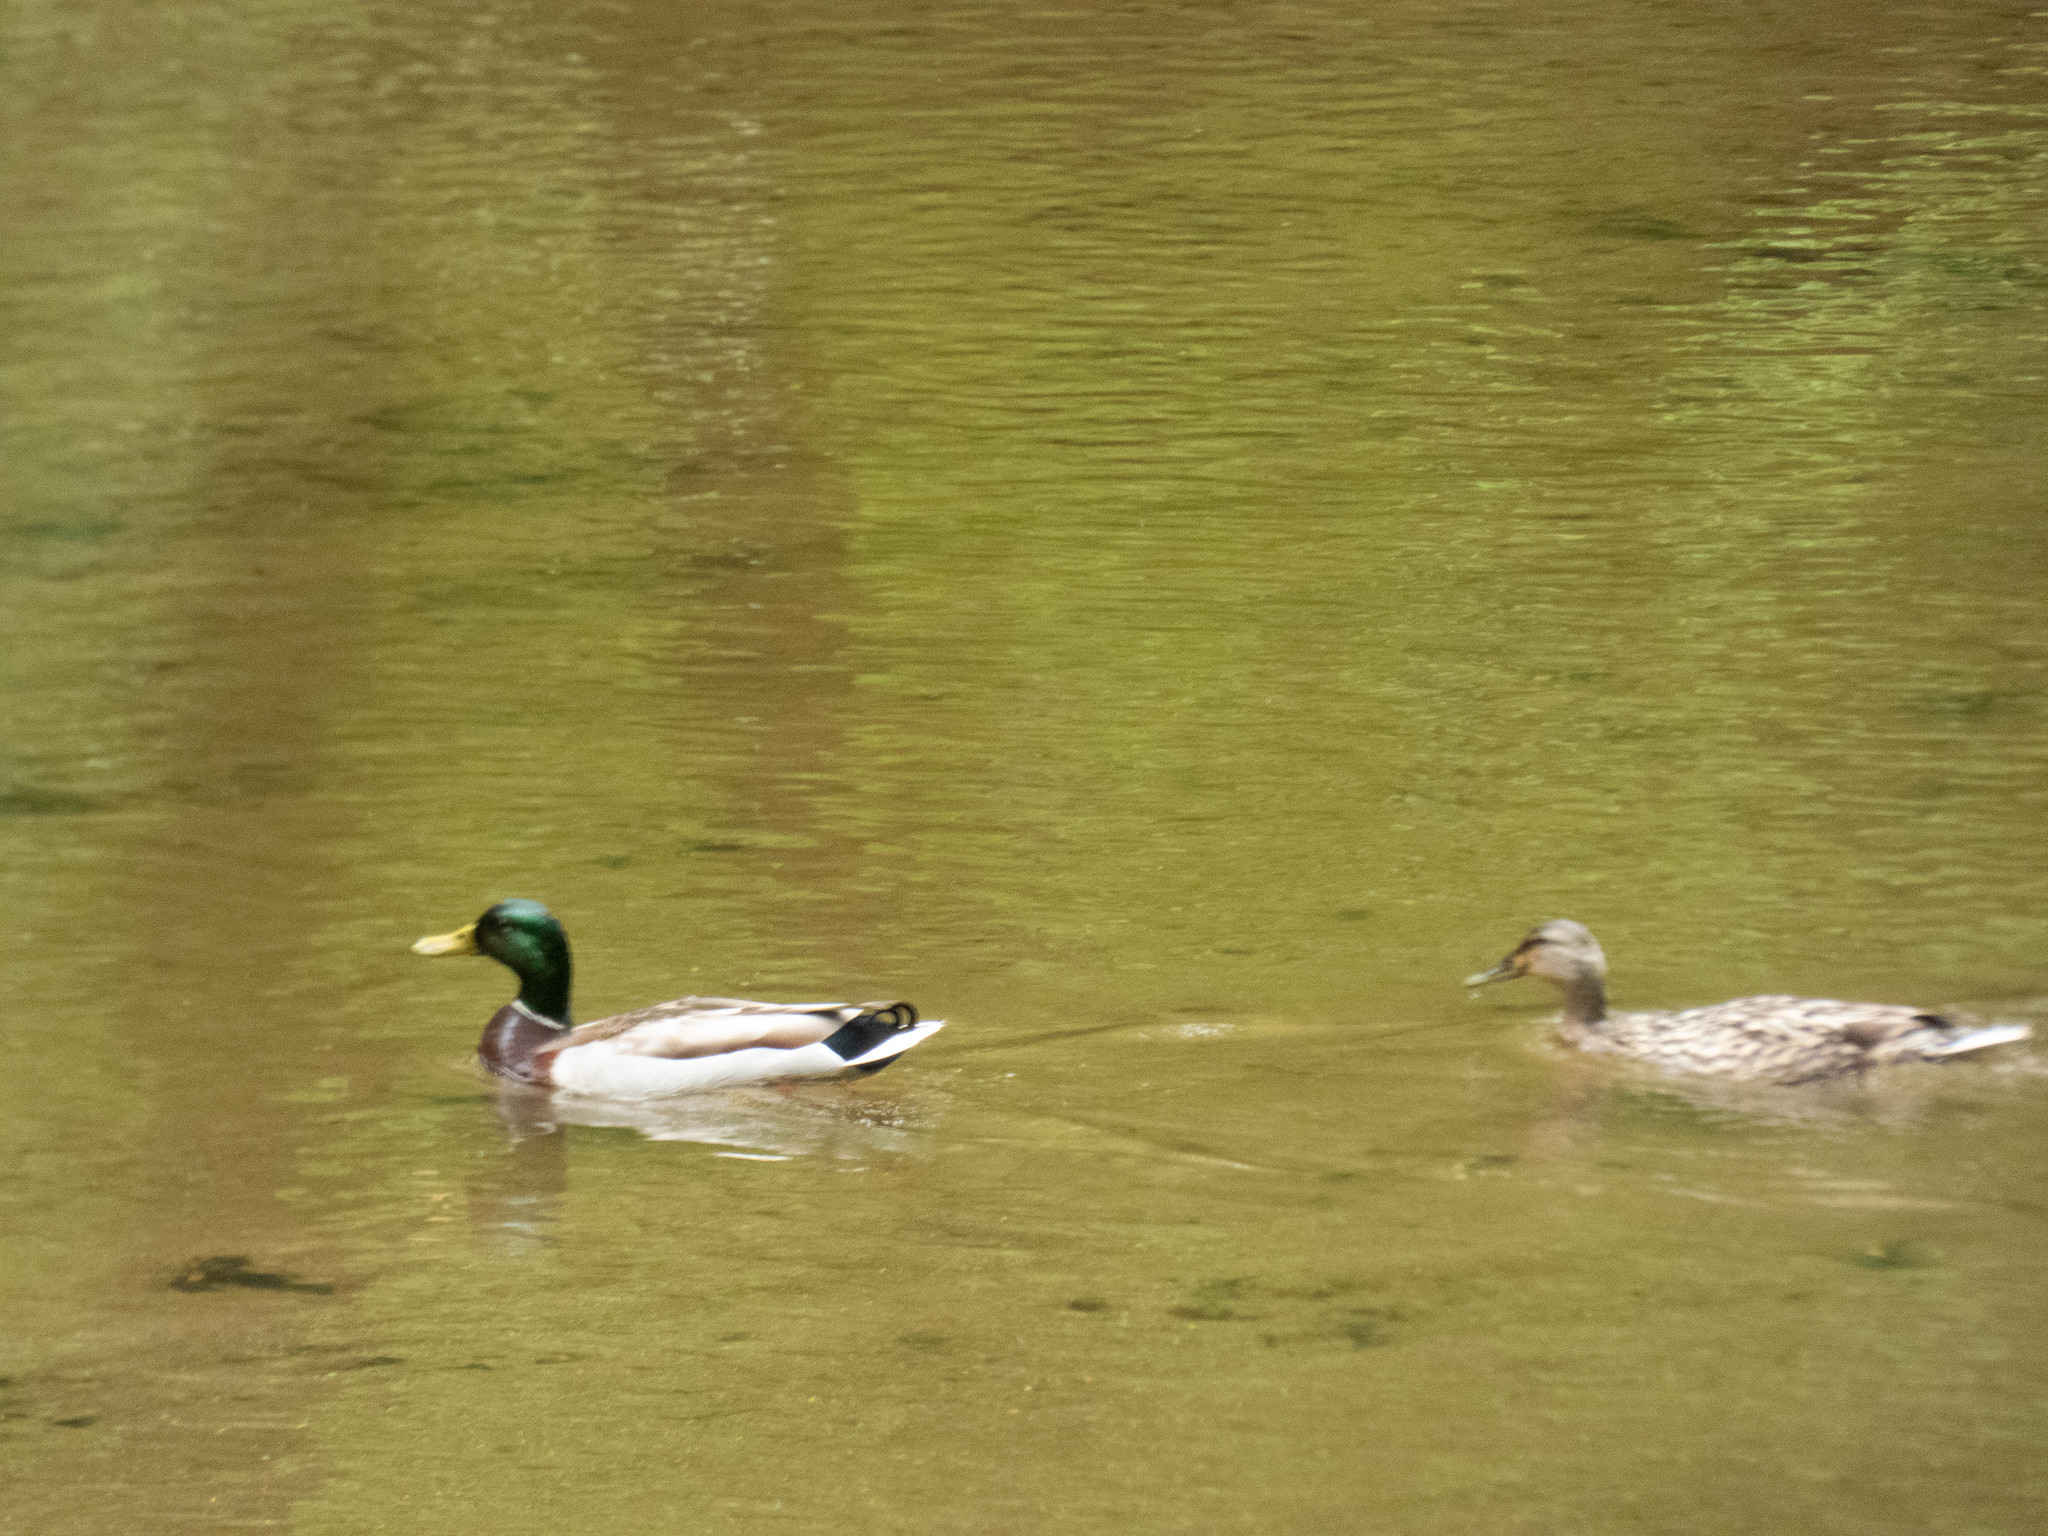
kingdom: Animalia
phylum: Chordata
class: Aves
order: Anseriformes
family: Anatidae
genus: Anas
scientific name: Anas platyrhynchos
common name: Mallard
